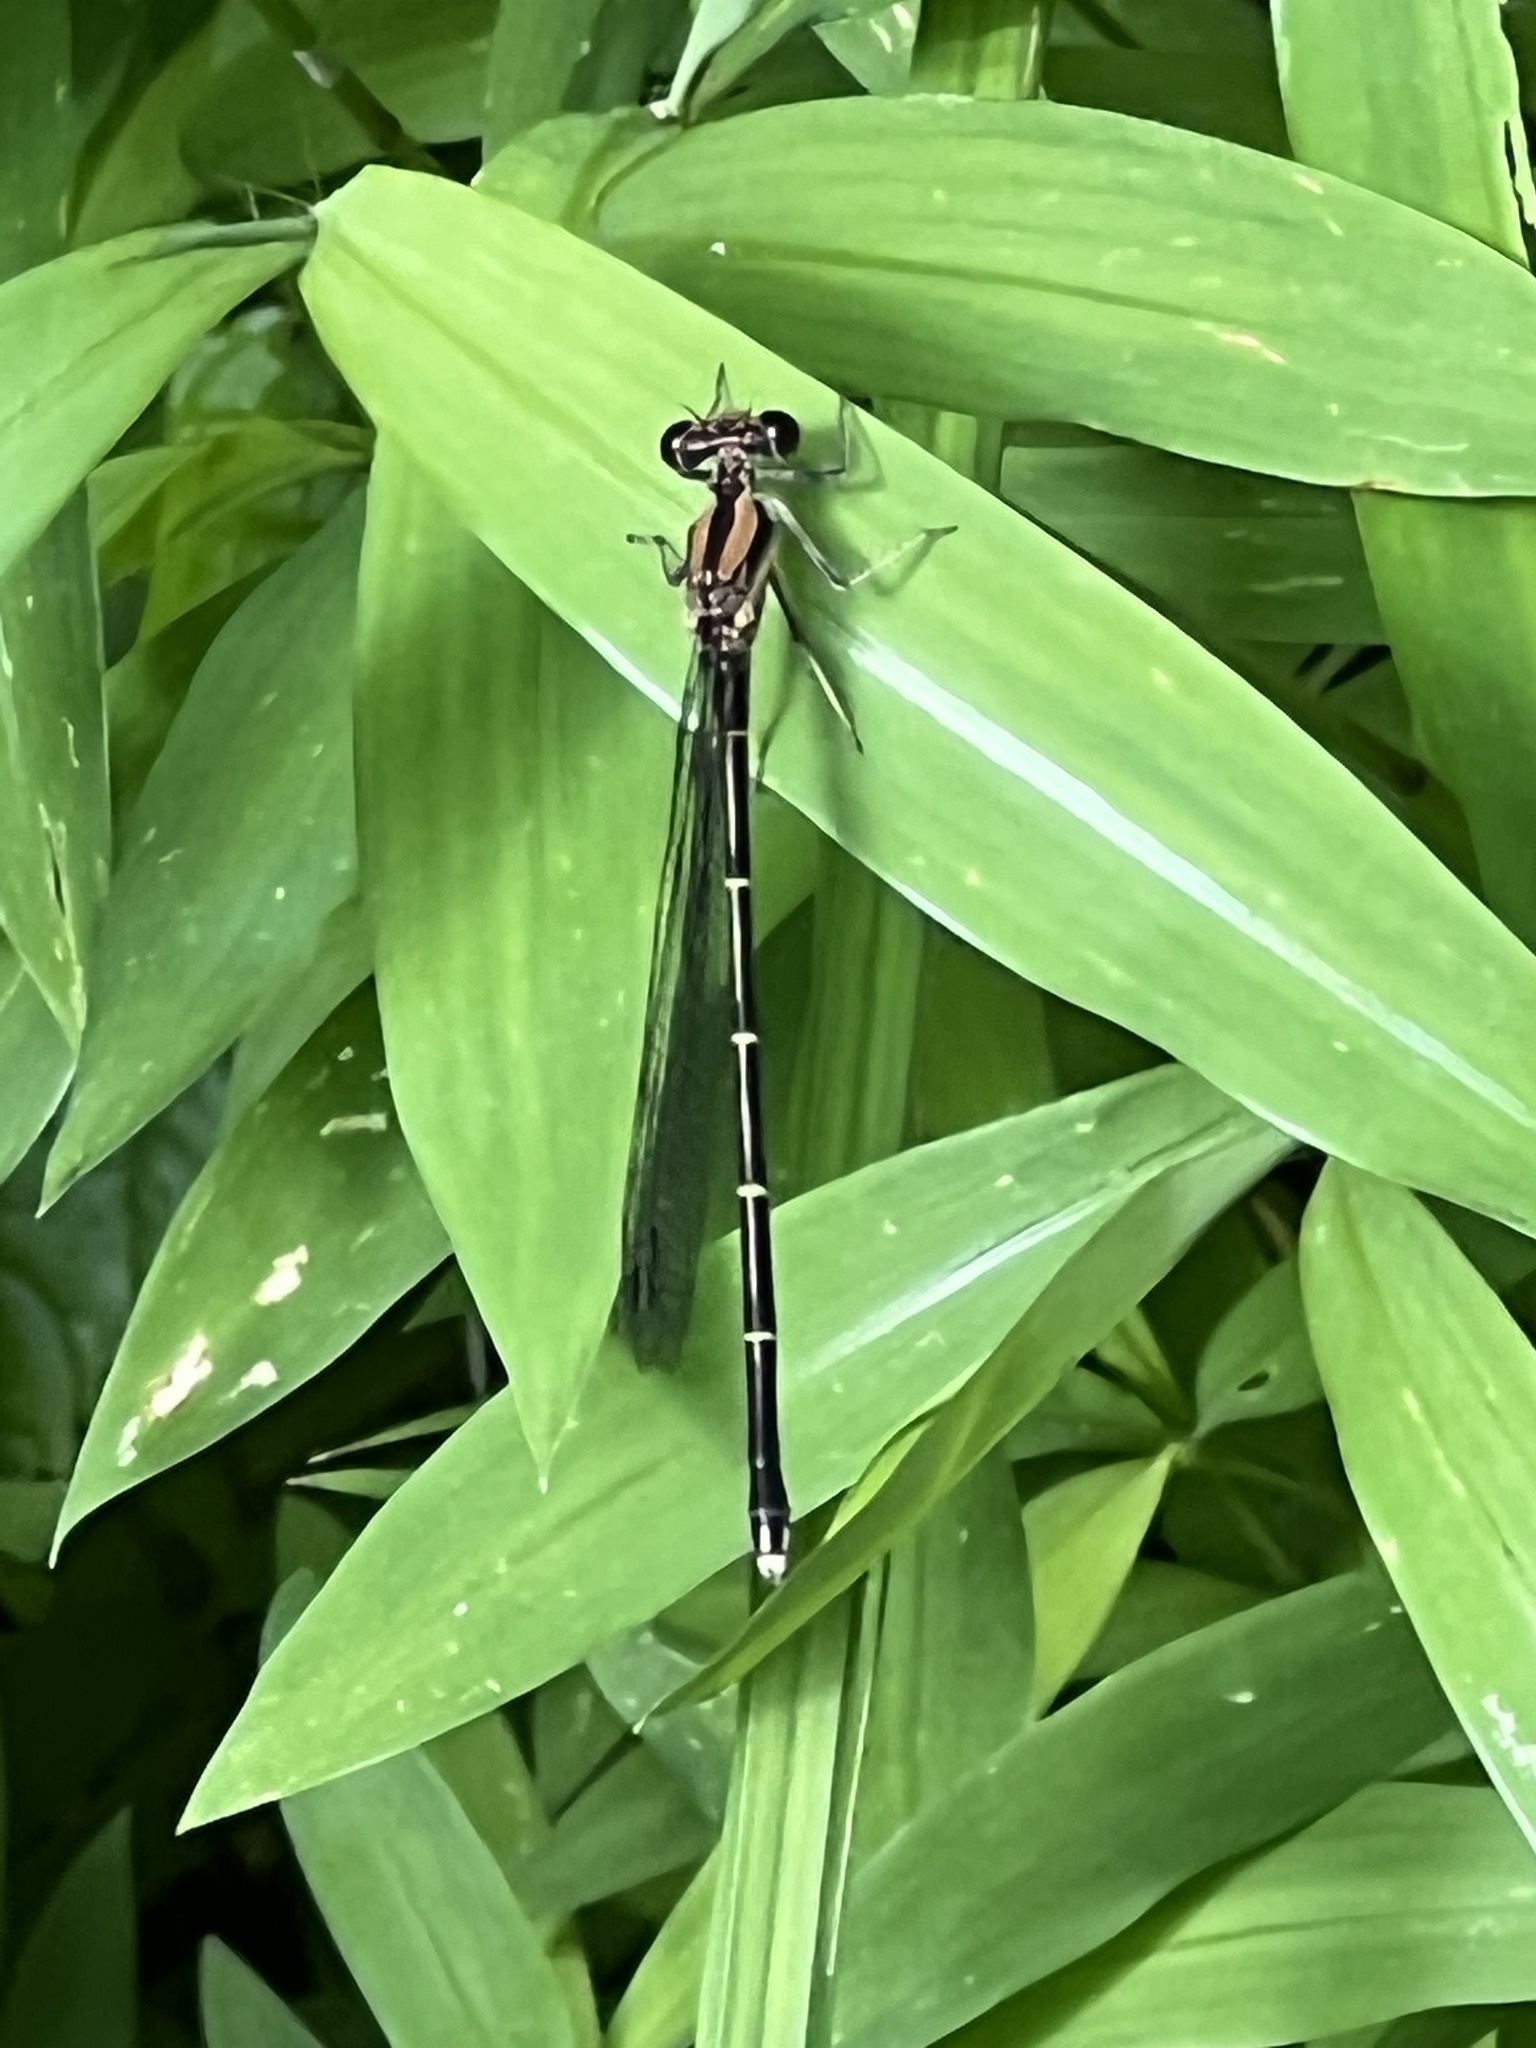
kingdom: Animalia
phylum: Arthropoda
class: Insecta
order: Odonata
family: Coenagrionidae
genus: Argia
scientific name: Argia tibialis
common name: Blue-tipped dancer
